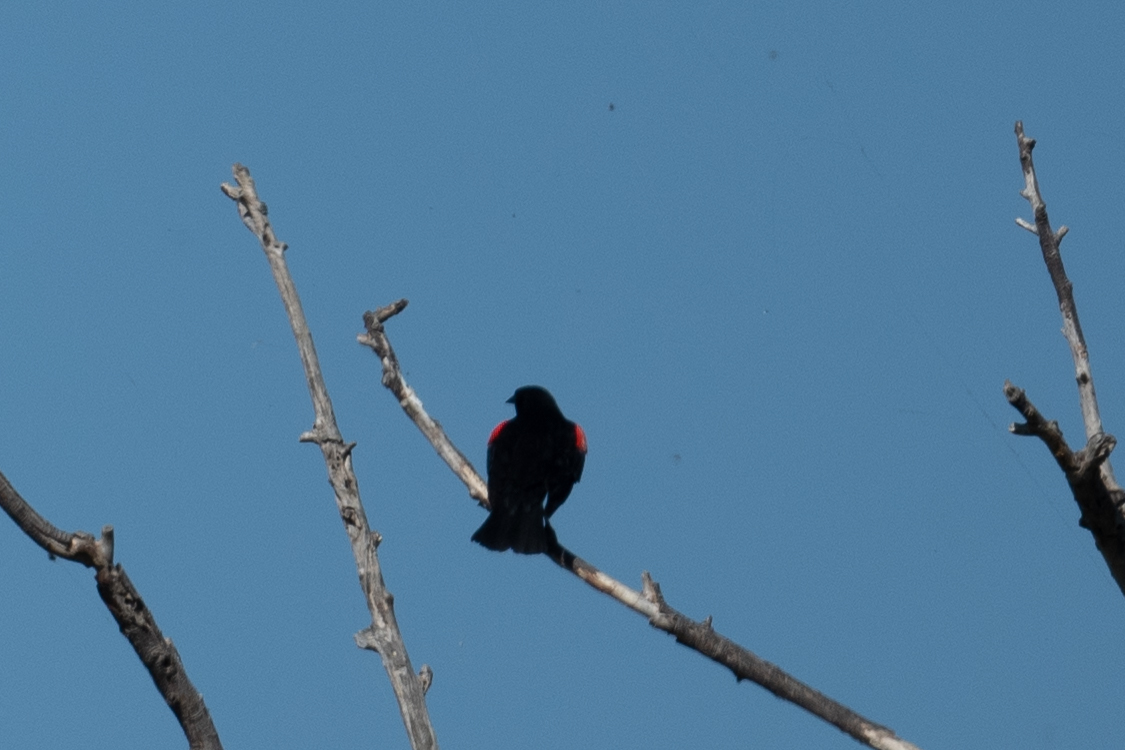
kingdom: Animalia
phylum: Chordata
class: Aves
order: Passeriformes
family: Icteridae
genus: Agelaius
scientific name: Agelaius phoeniceus
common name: Red-winged blackbird
